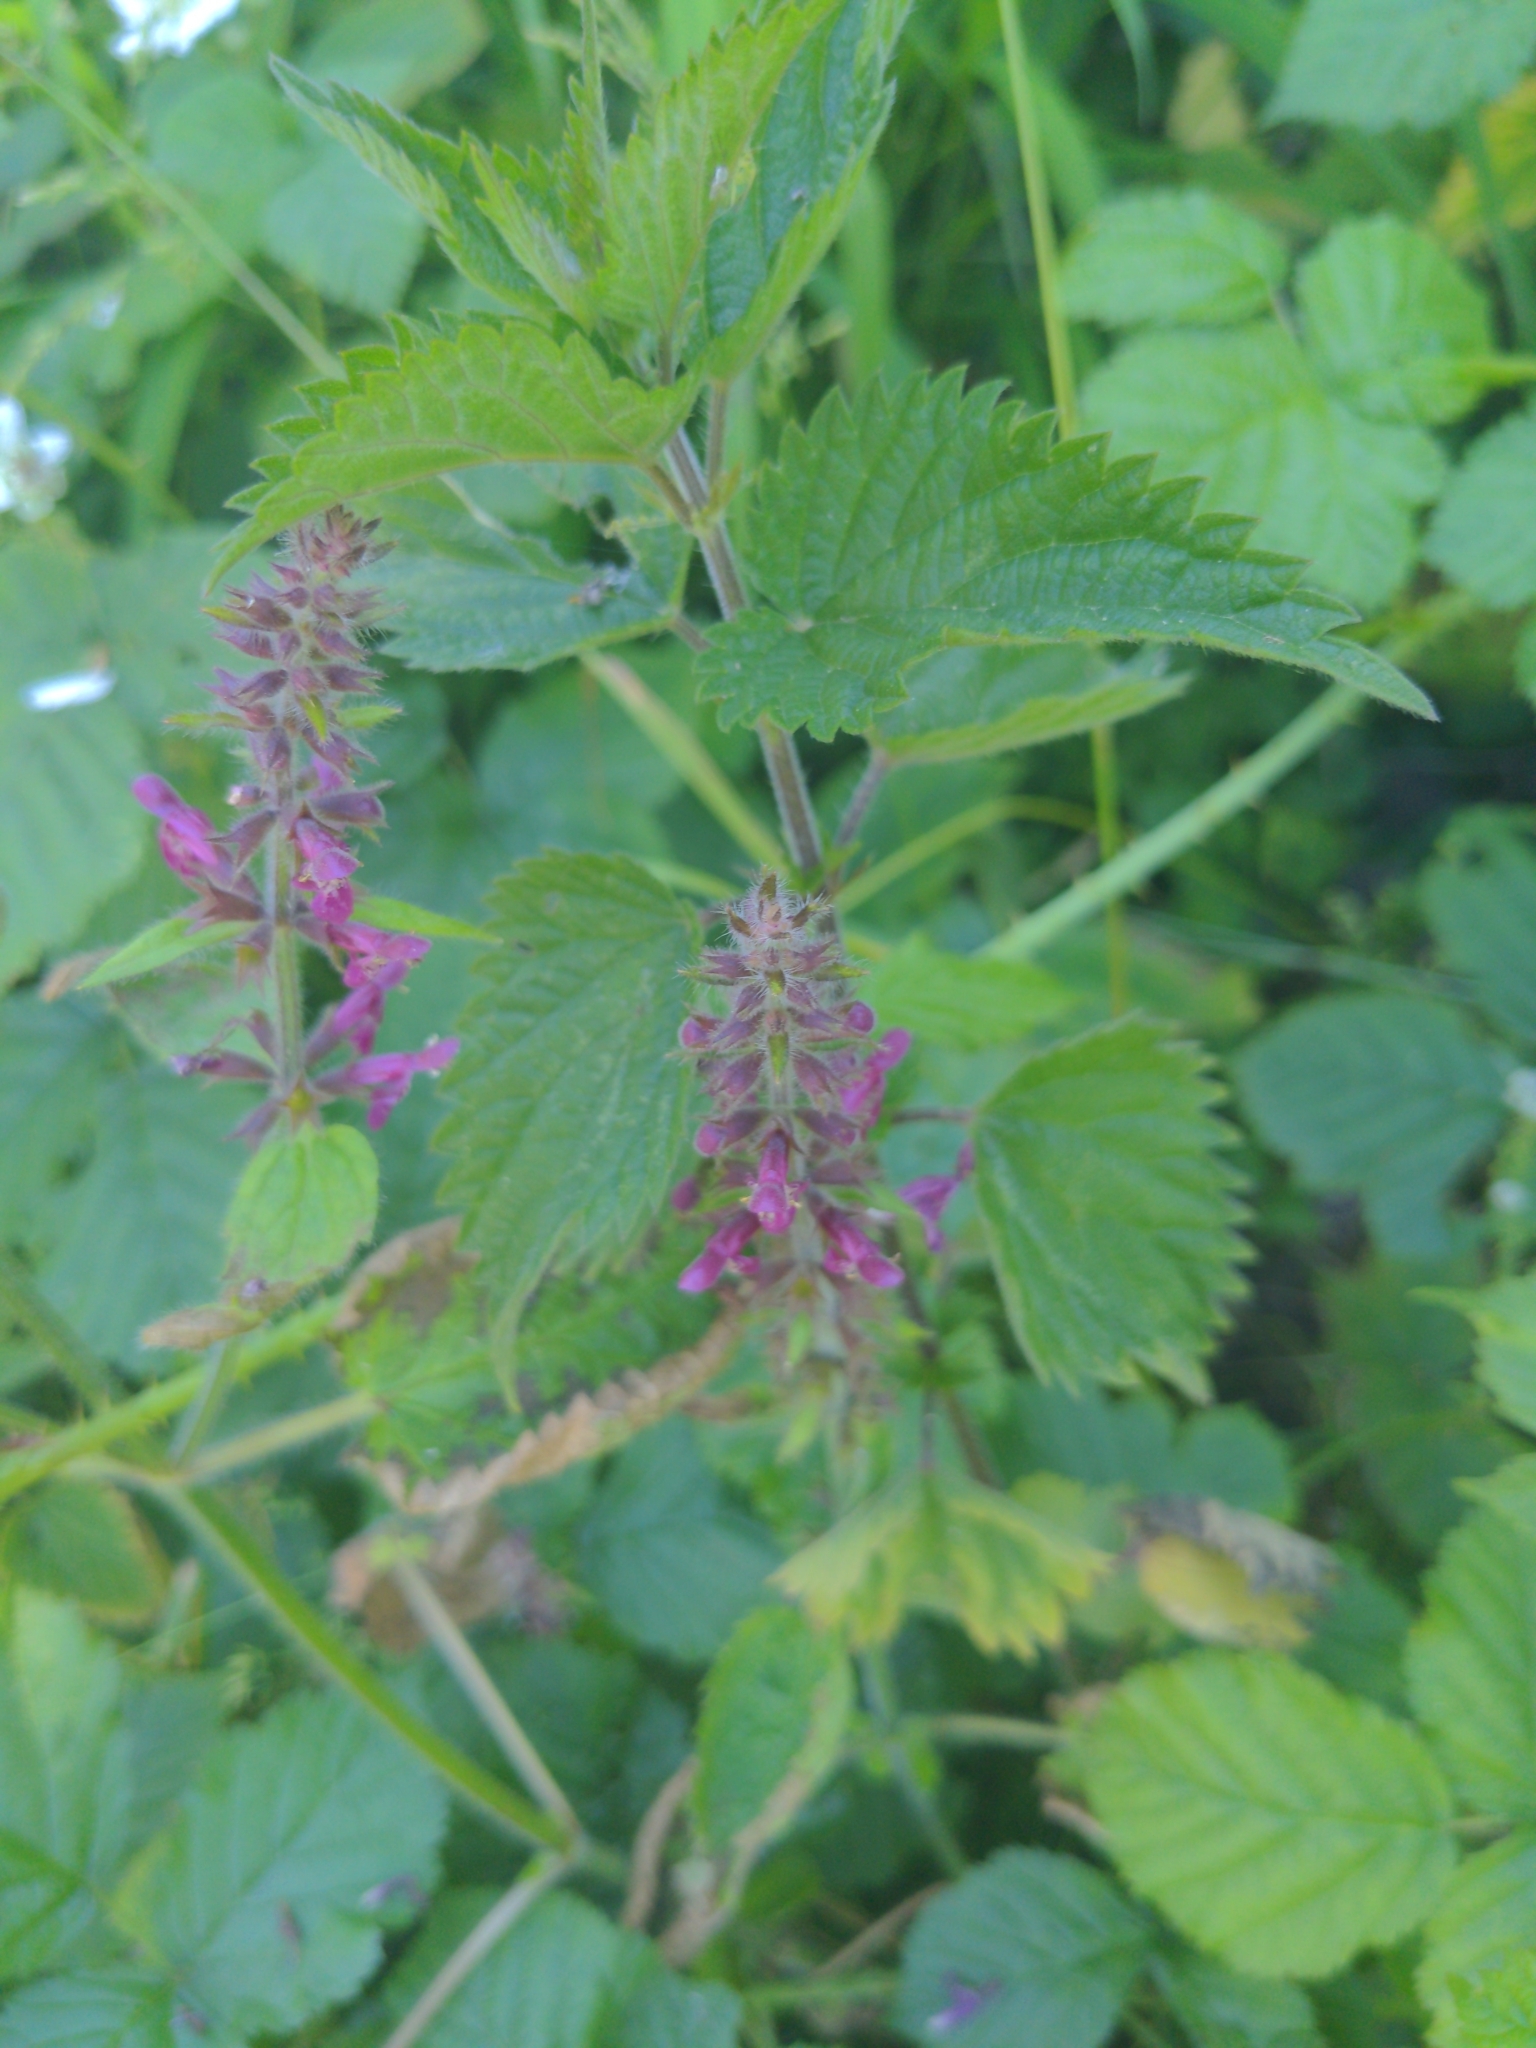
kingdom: Plantae
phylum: Tracheophyta
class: Magnoliopsida
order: Lamiales
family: Lamiaceae
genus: Stachys
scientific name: Stachys sylvatica
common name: Hedge woundwort
